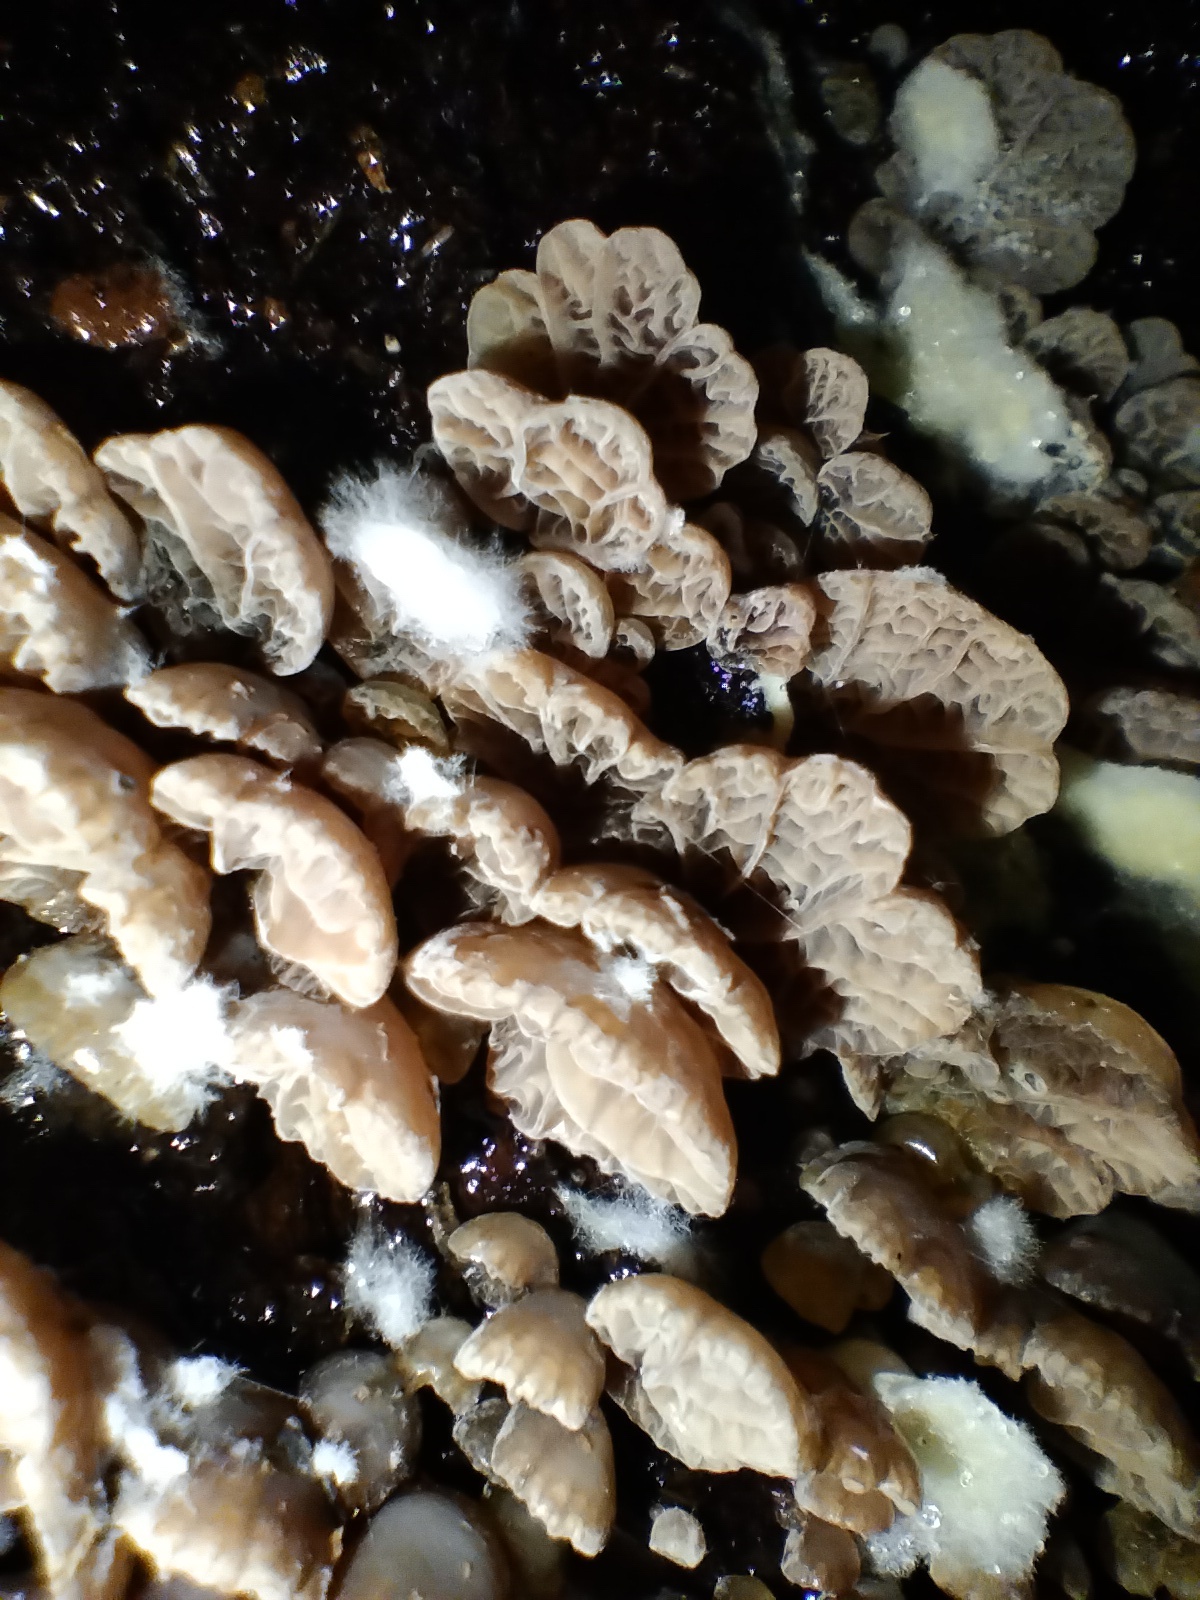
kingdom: Fungi
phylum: Basidiomycota
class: Agaricomycetes
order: Agaricales
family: Pleurotaceae
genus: Resupinatus
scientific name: Resupinatus merulioides
